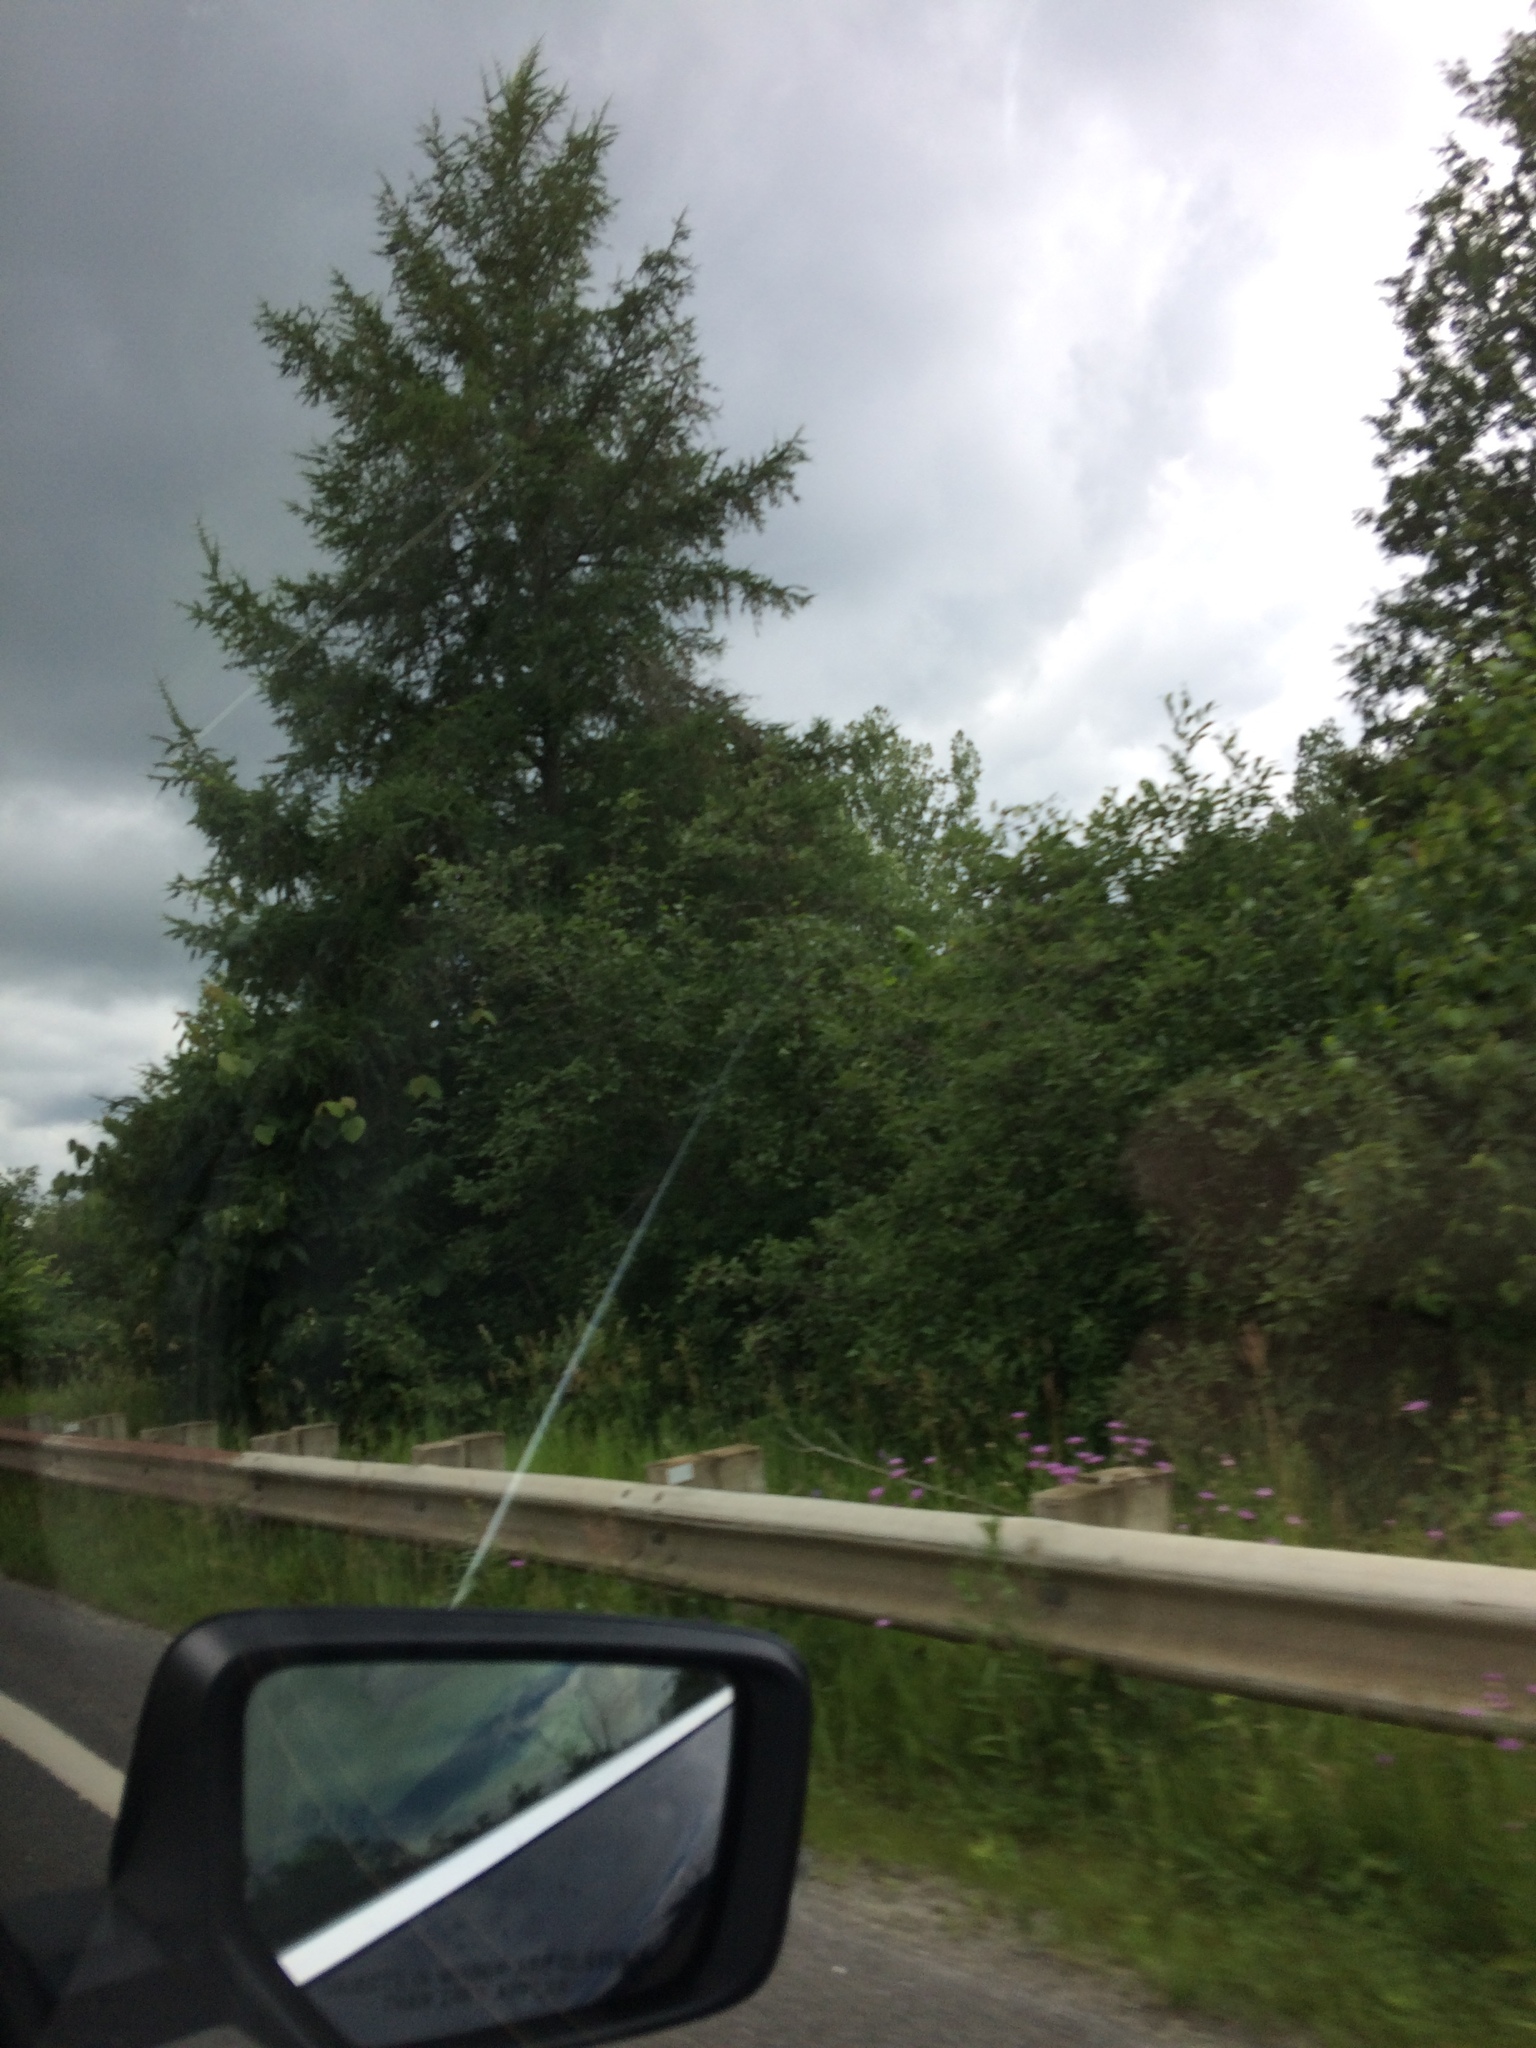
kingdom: Plantae
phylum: Tracheophyta
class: Pinopsida
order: Pinales
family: Pinaceae
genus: Larix
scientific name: Larix laricina
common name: American larch
